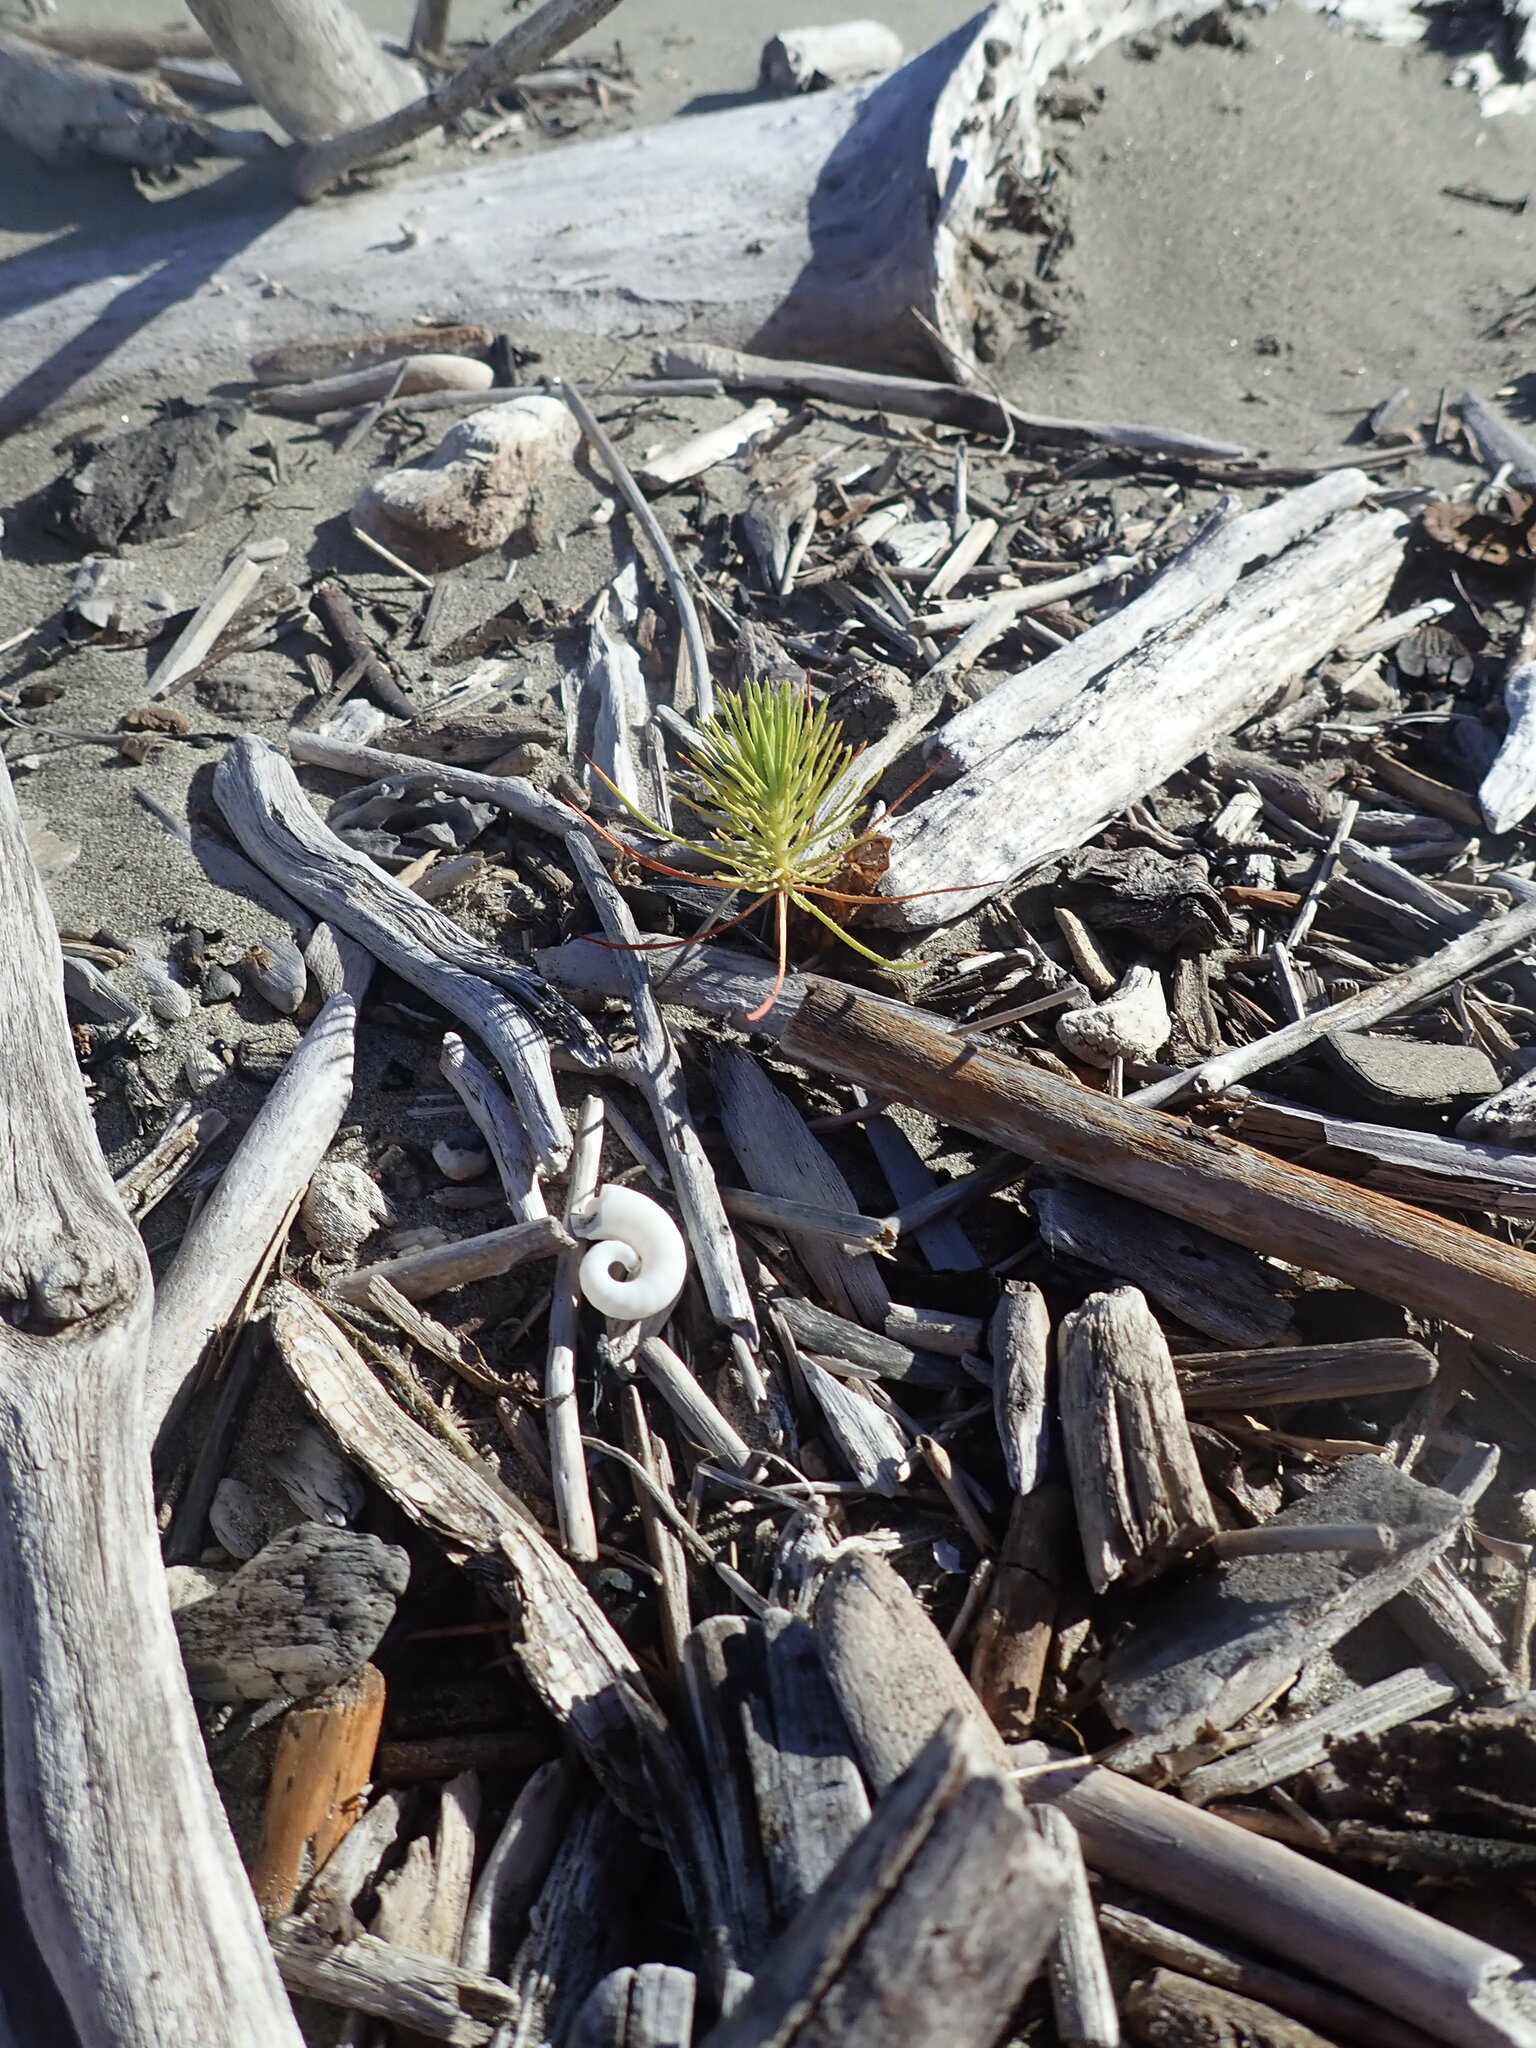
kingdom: Plantae
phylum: Tracheophyta
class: Pinopsida
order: Pinales
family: Pinaceae
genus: Pinus
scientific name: Pinus radiata
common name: Monterey pine
